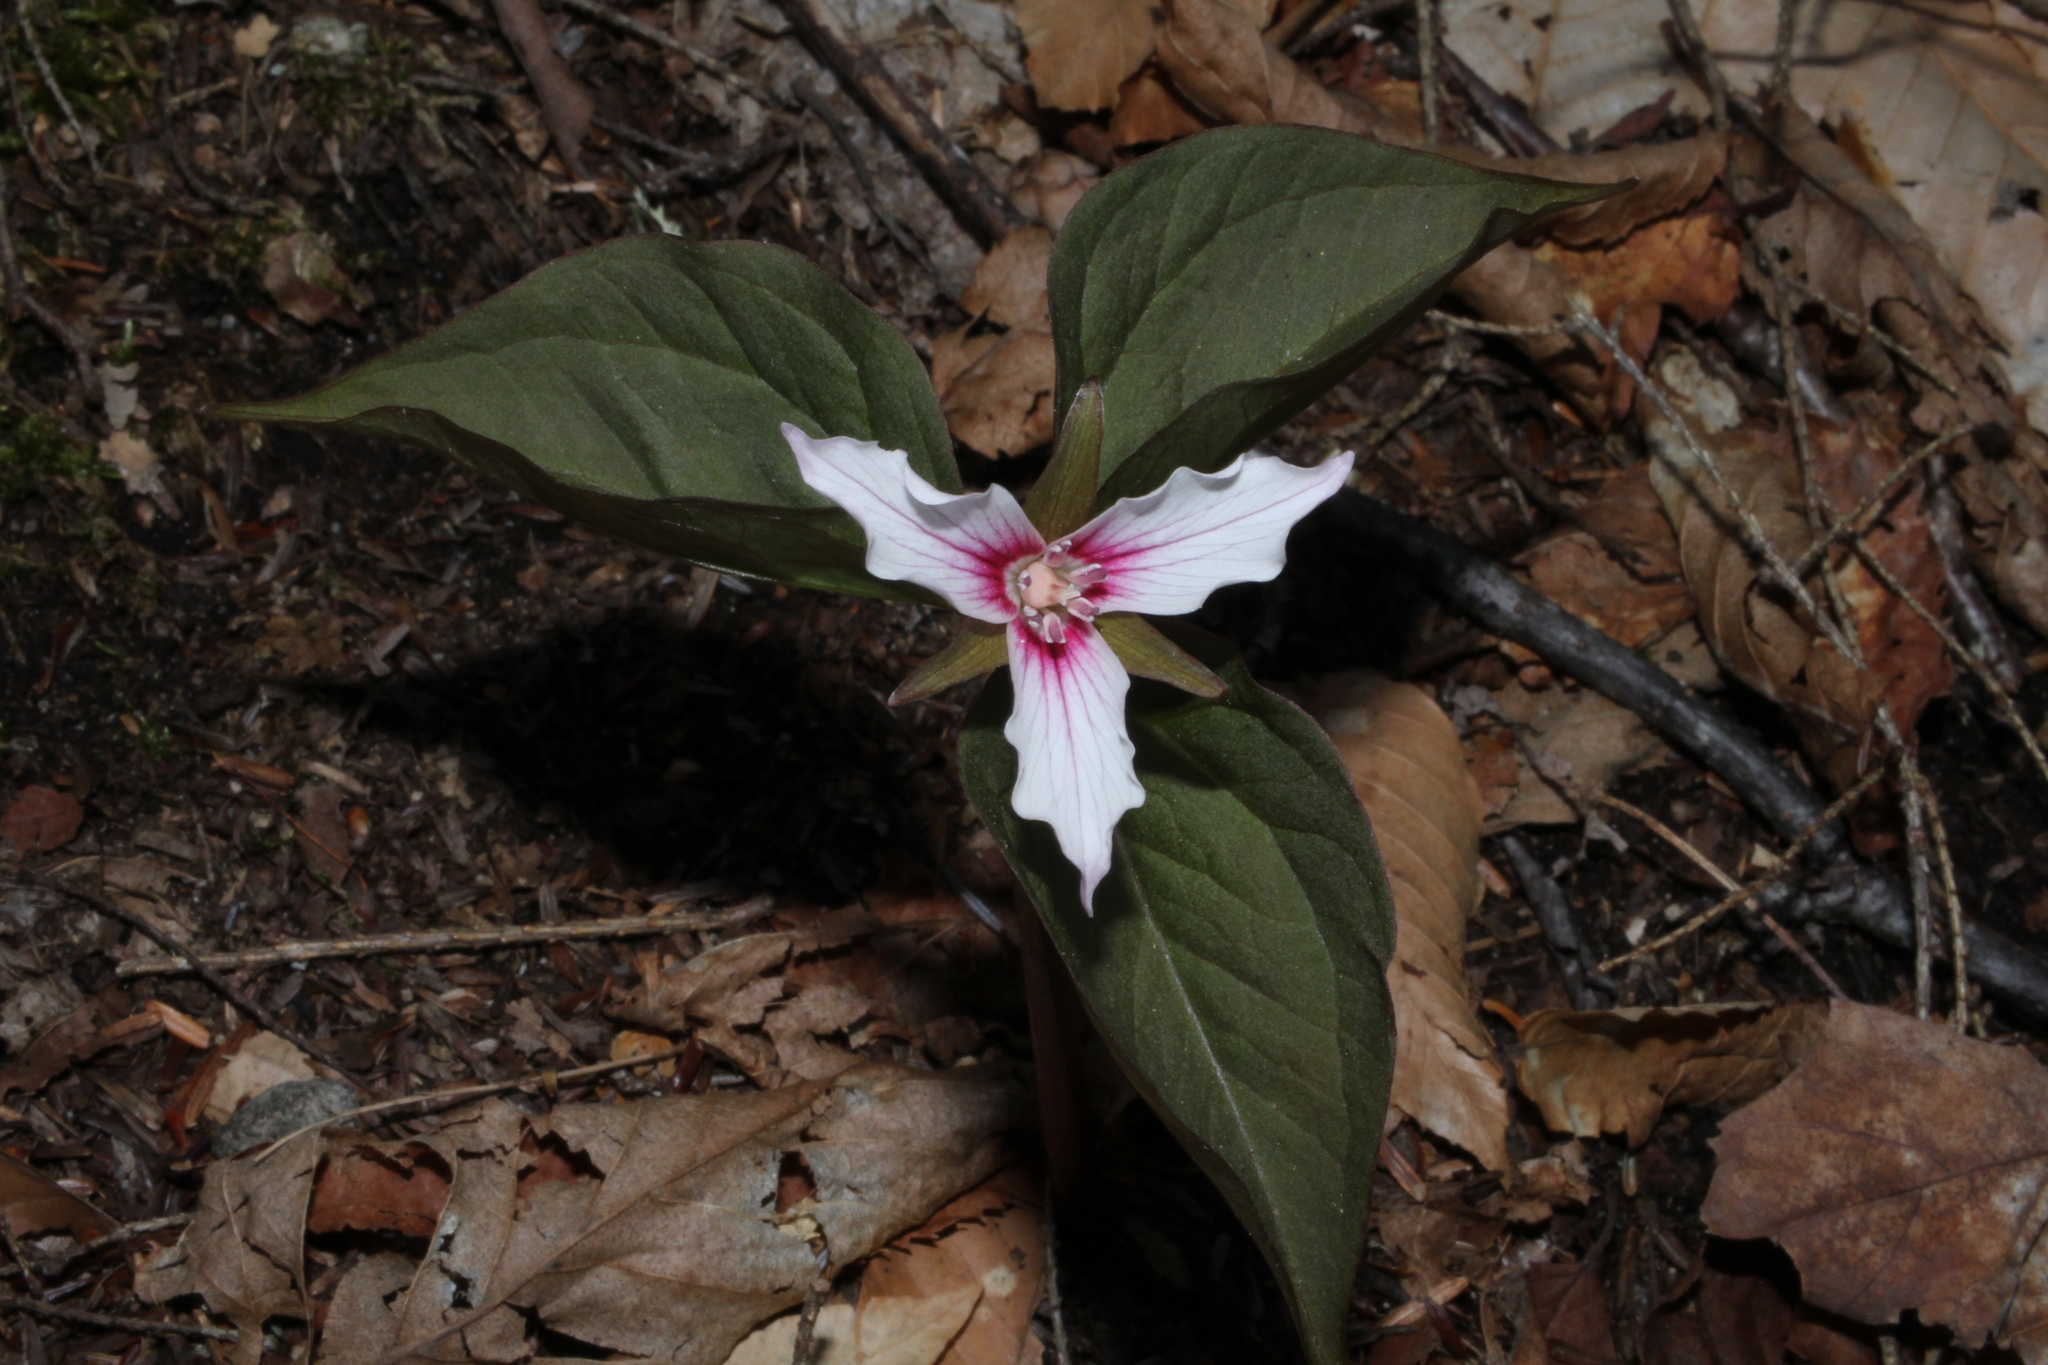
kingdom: Plantae
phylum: Tracheophyta
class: Liliopsida
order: Liliales
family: Melanthiaceae
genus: Trillium
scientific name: Trillium undulatum
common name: Paint trillium
